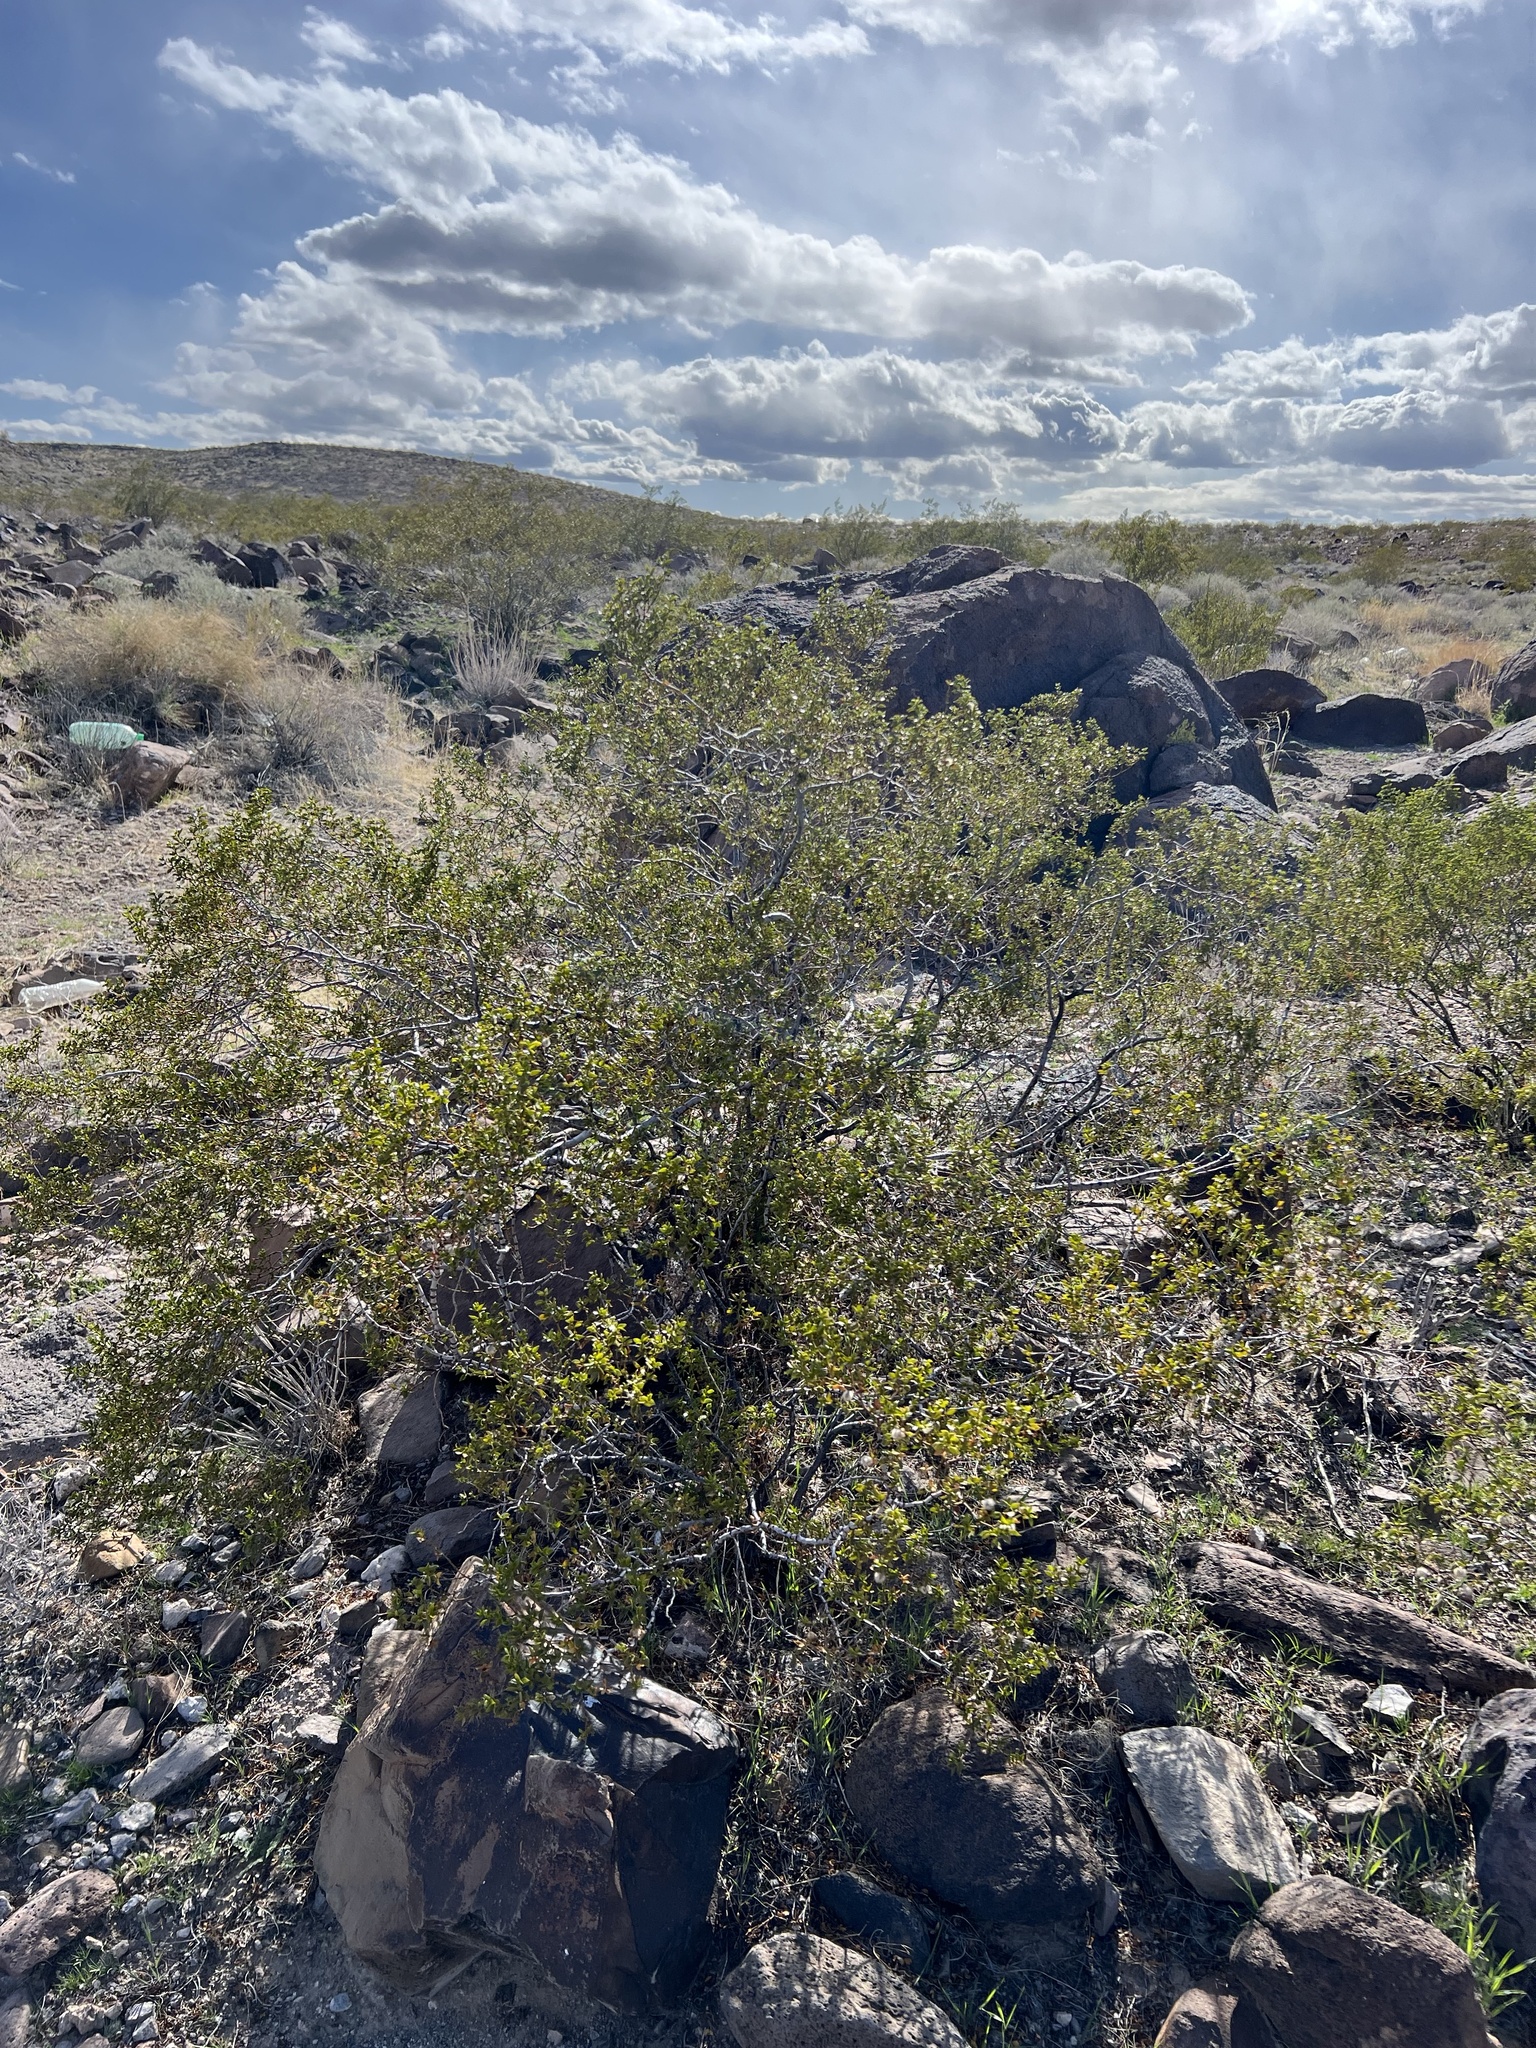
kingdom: Plantae
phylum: Tracheophyta
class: Magnoliopsida
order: Zygophyllales
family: Zygophyllaceae
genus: Larrea
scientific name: Larrea tridentata
